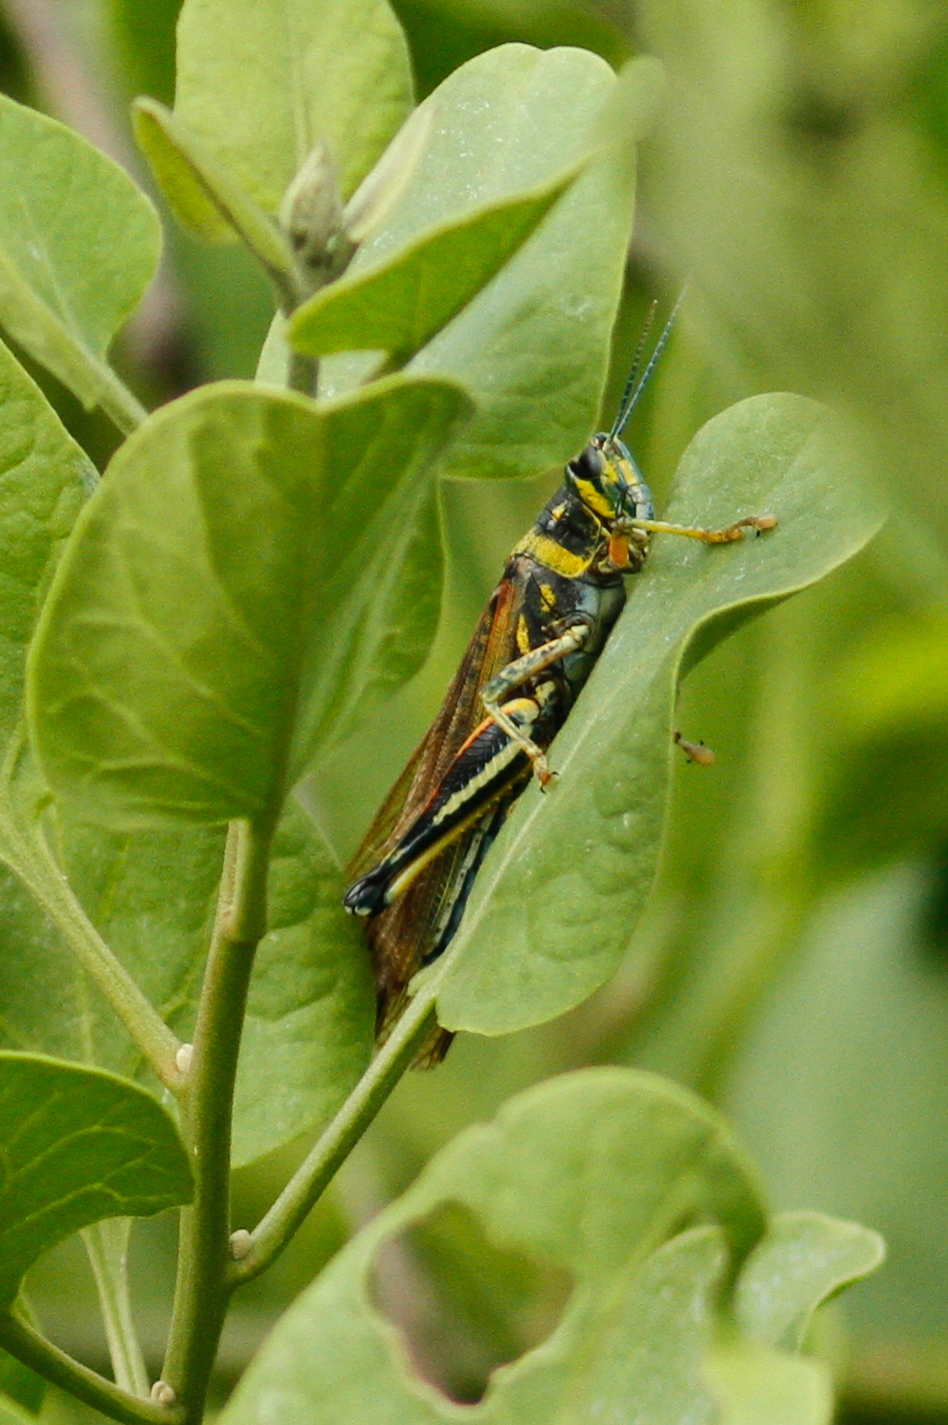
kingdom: Animalia
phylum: Arthropoda
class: Insecta
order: Orthoptera
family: Acrididae
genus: Schistocerca
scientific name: Schistocerca melanocera
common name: Large painted locust
